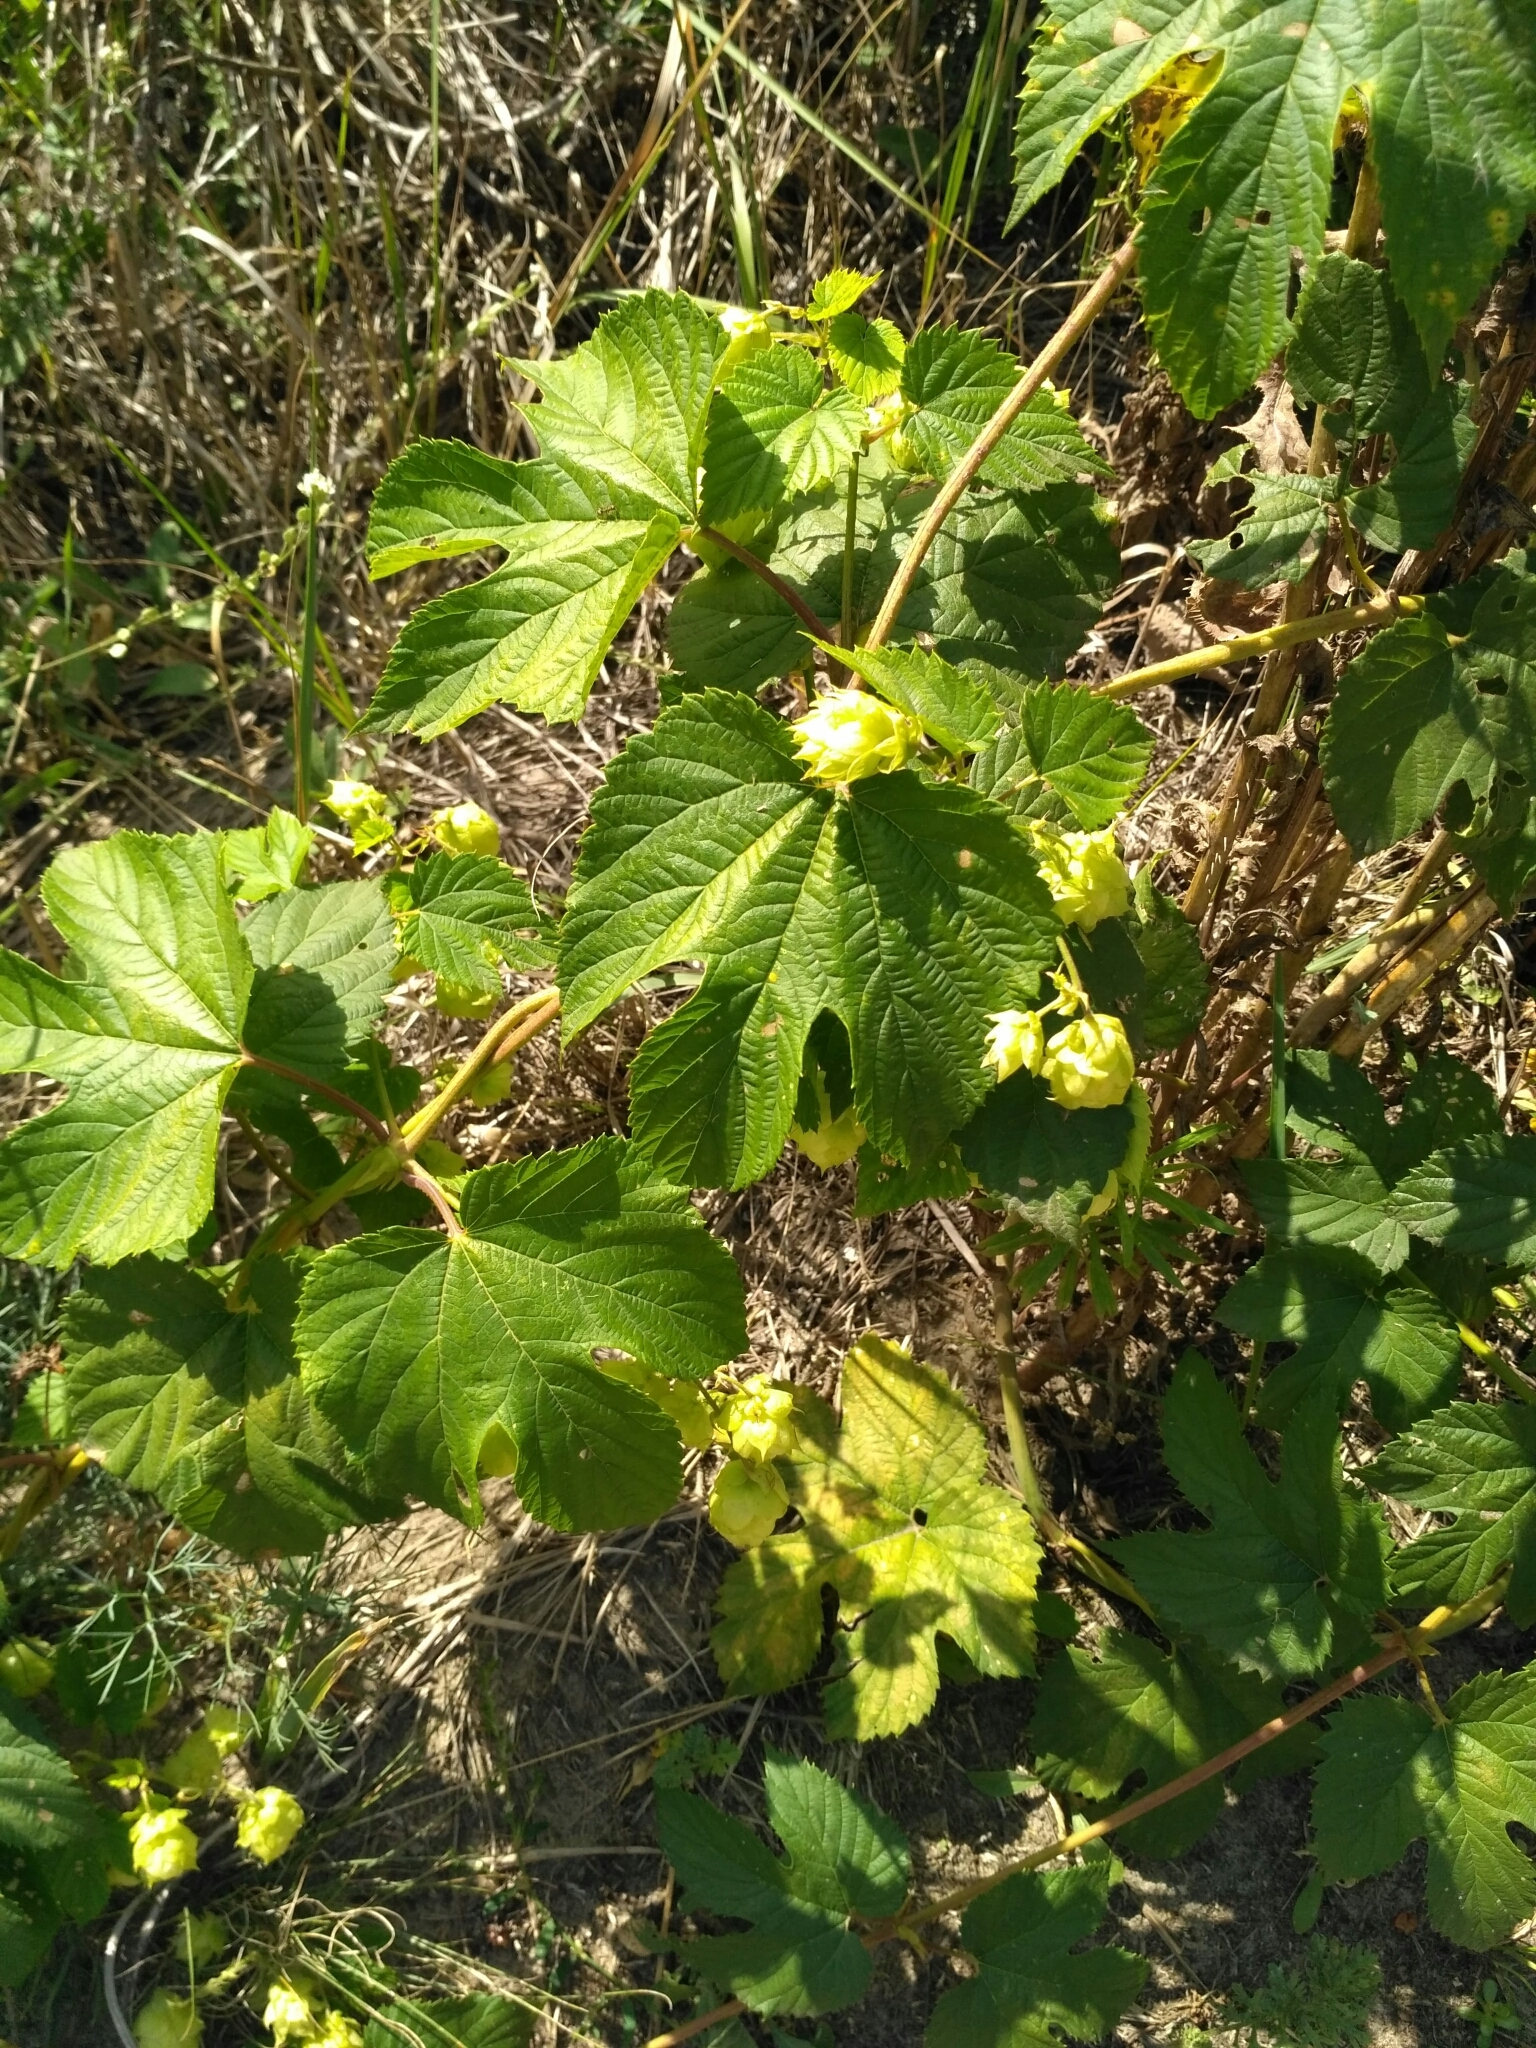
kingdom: Plantae
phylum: Tracheophyta
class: Magnoliopsida
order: Rosales
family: Cannabaceae
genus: Humulus
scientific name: Humulus lupulus
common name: Hop
